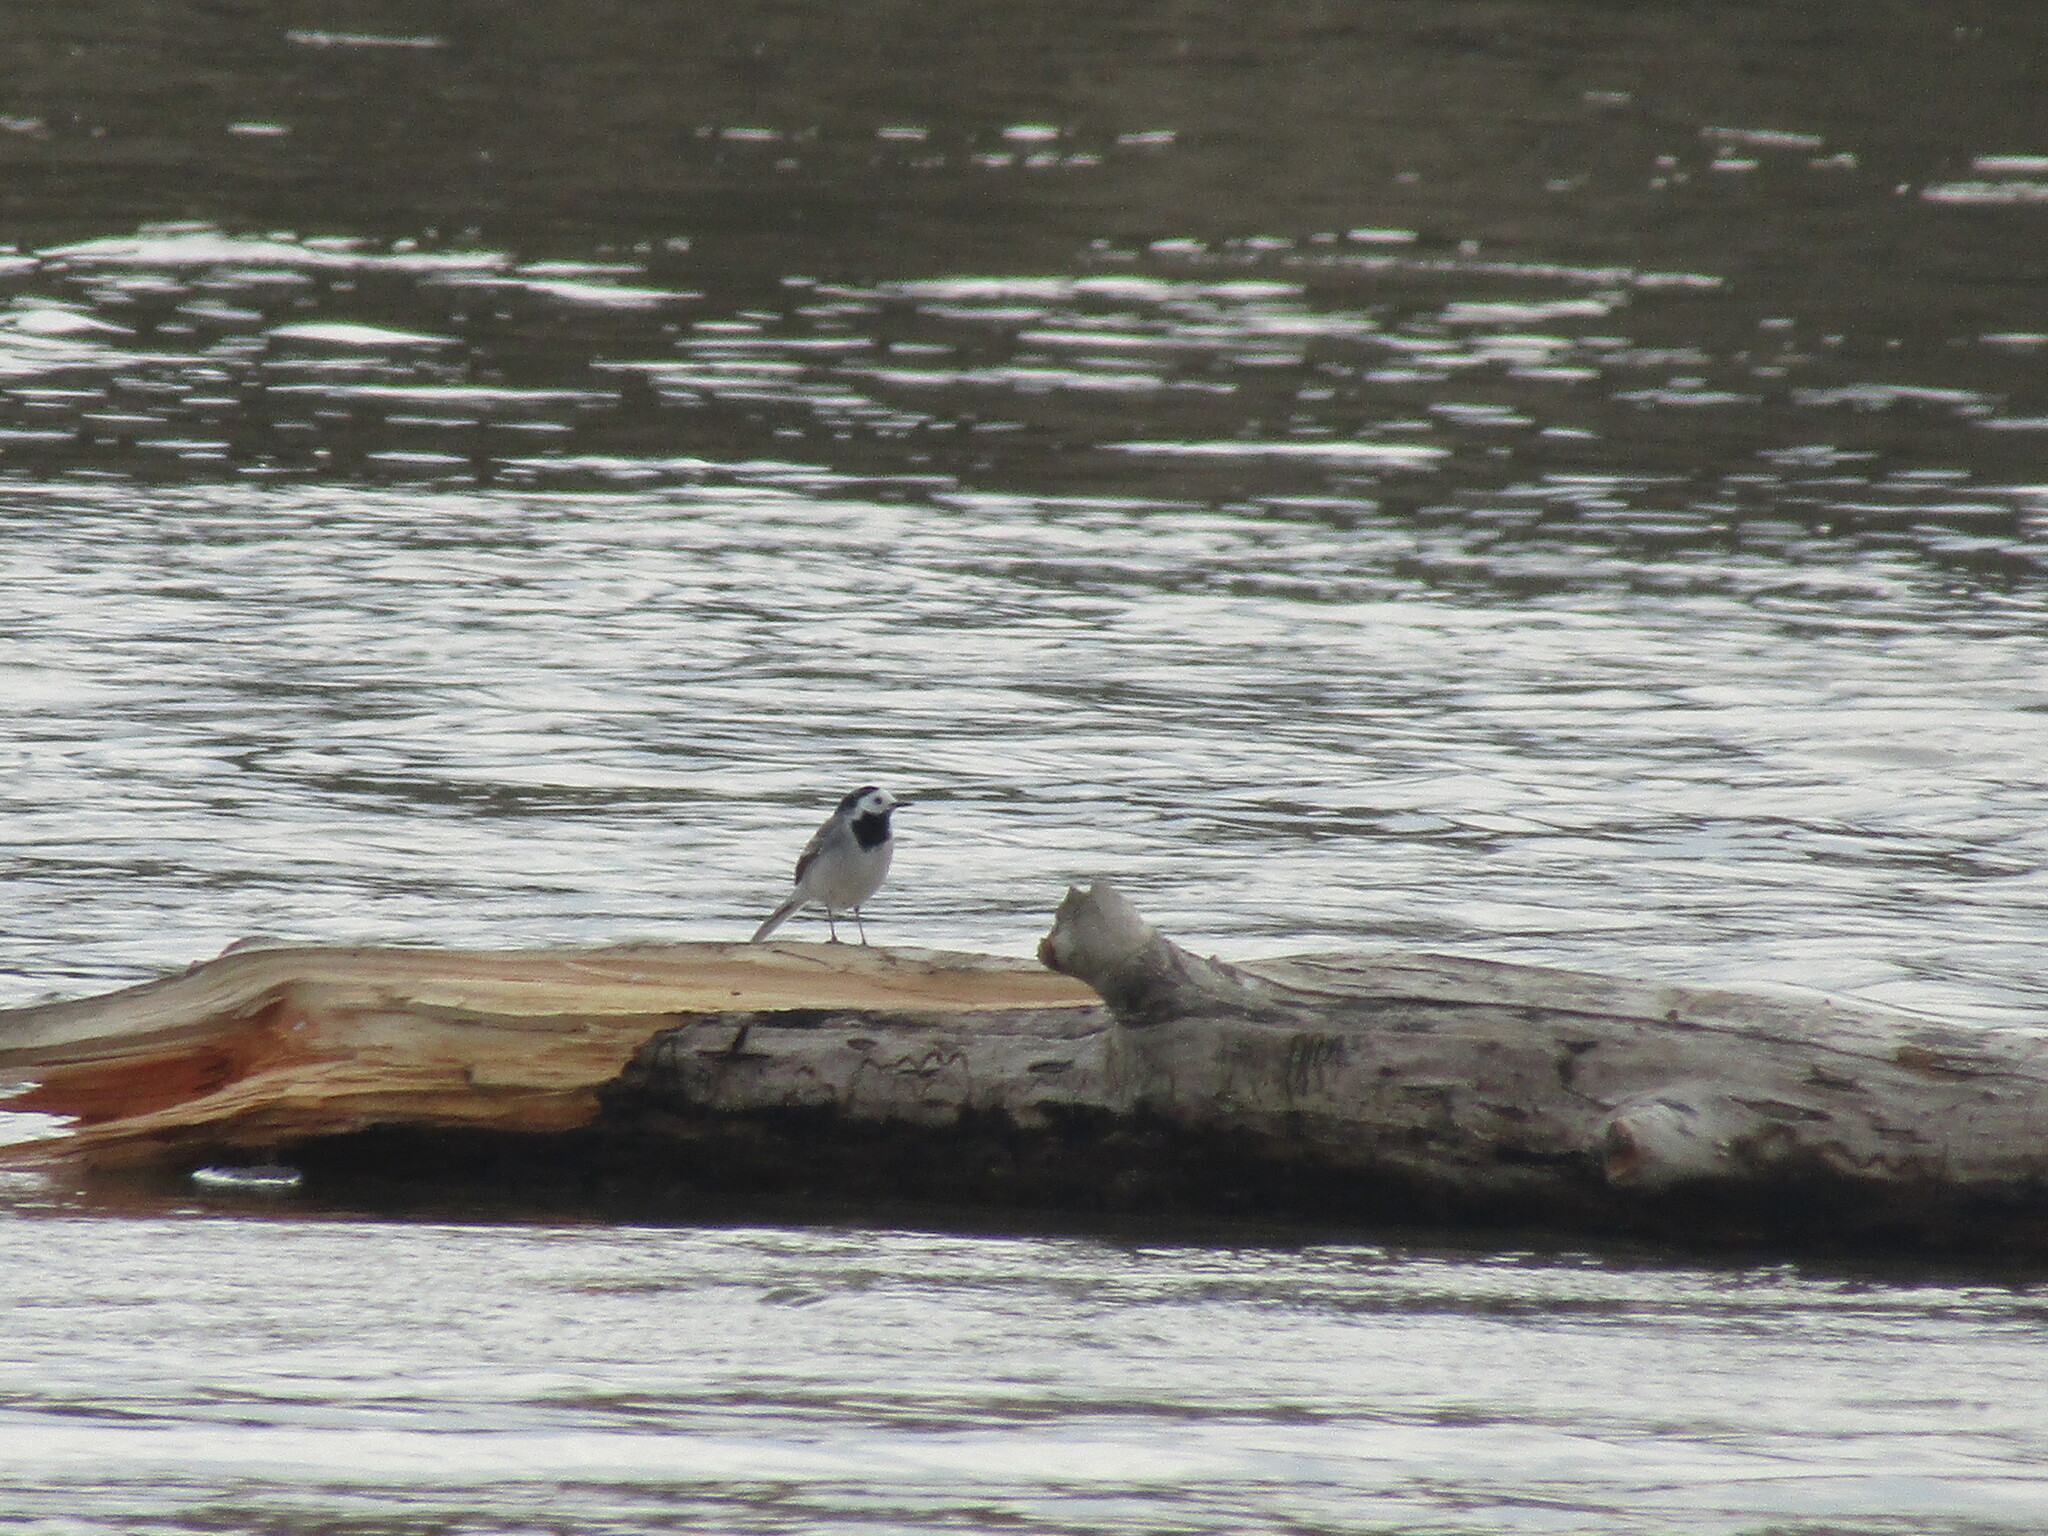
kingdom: Animalia
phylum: Chordata
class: Aves
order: Passeriformes
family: Motacillidae
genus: Motacilla
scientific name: Motacilla alba
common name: White wagtail
